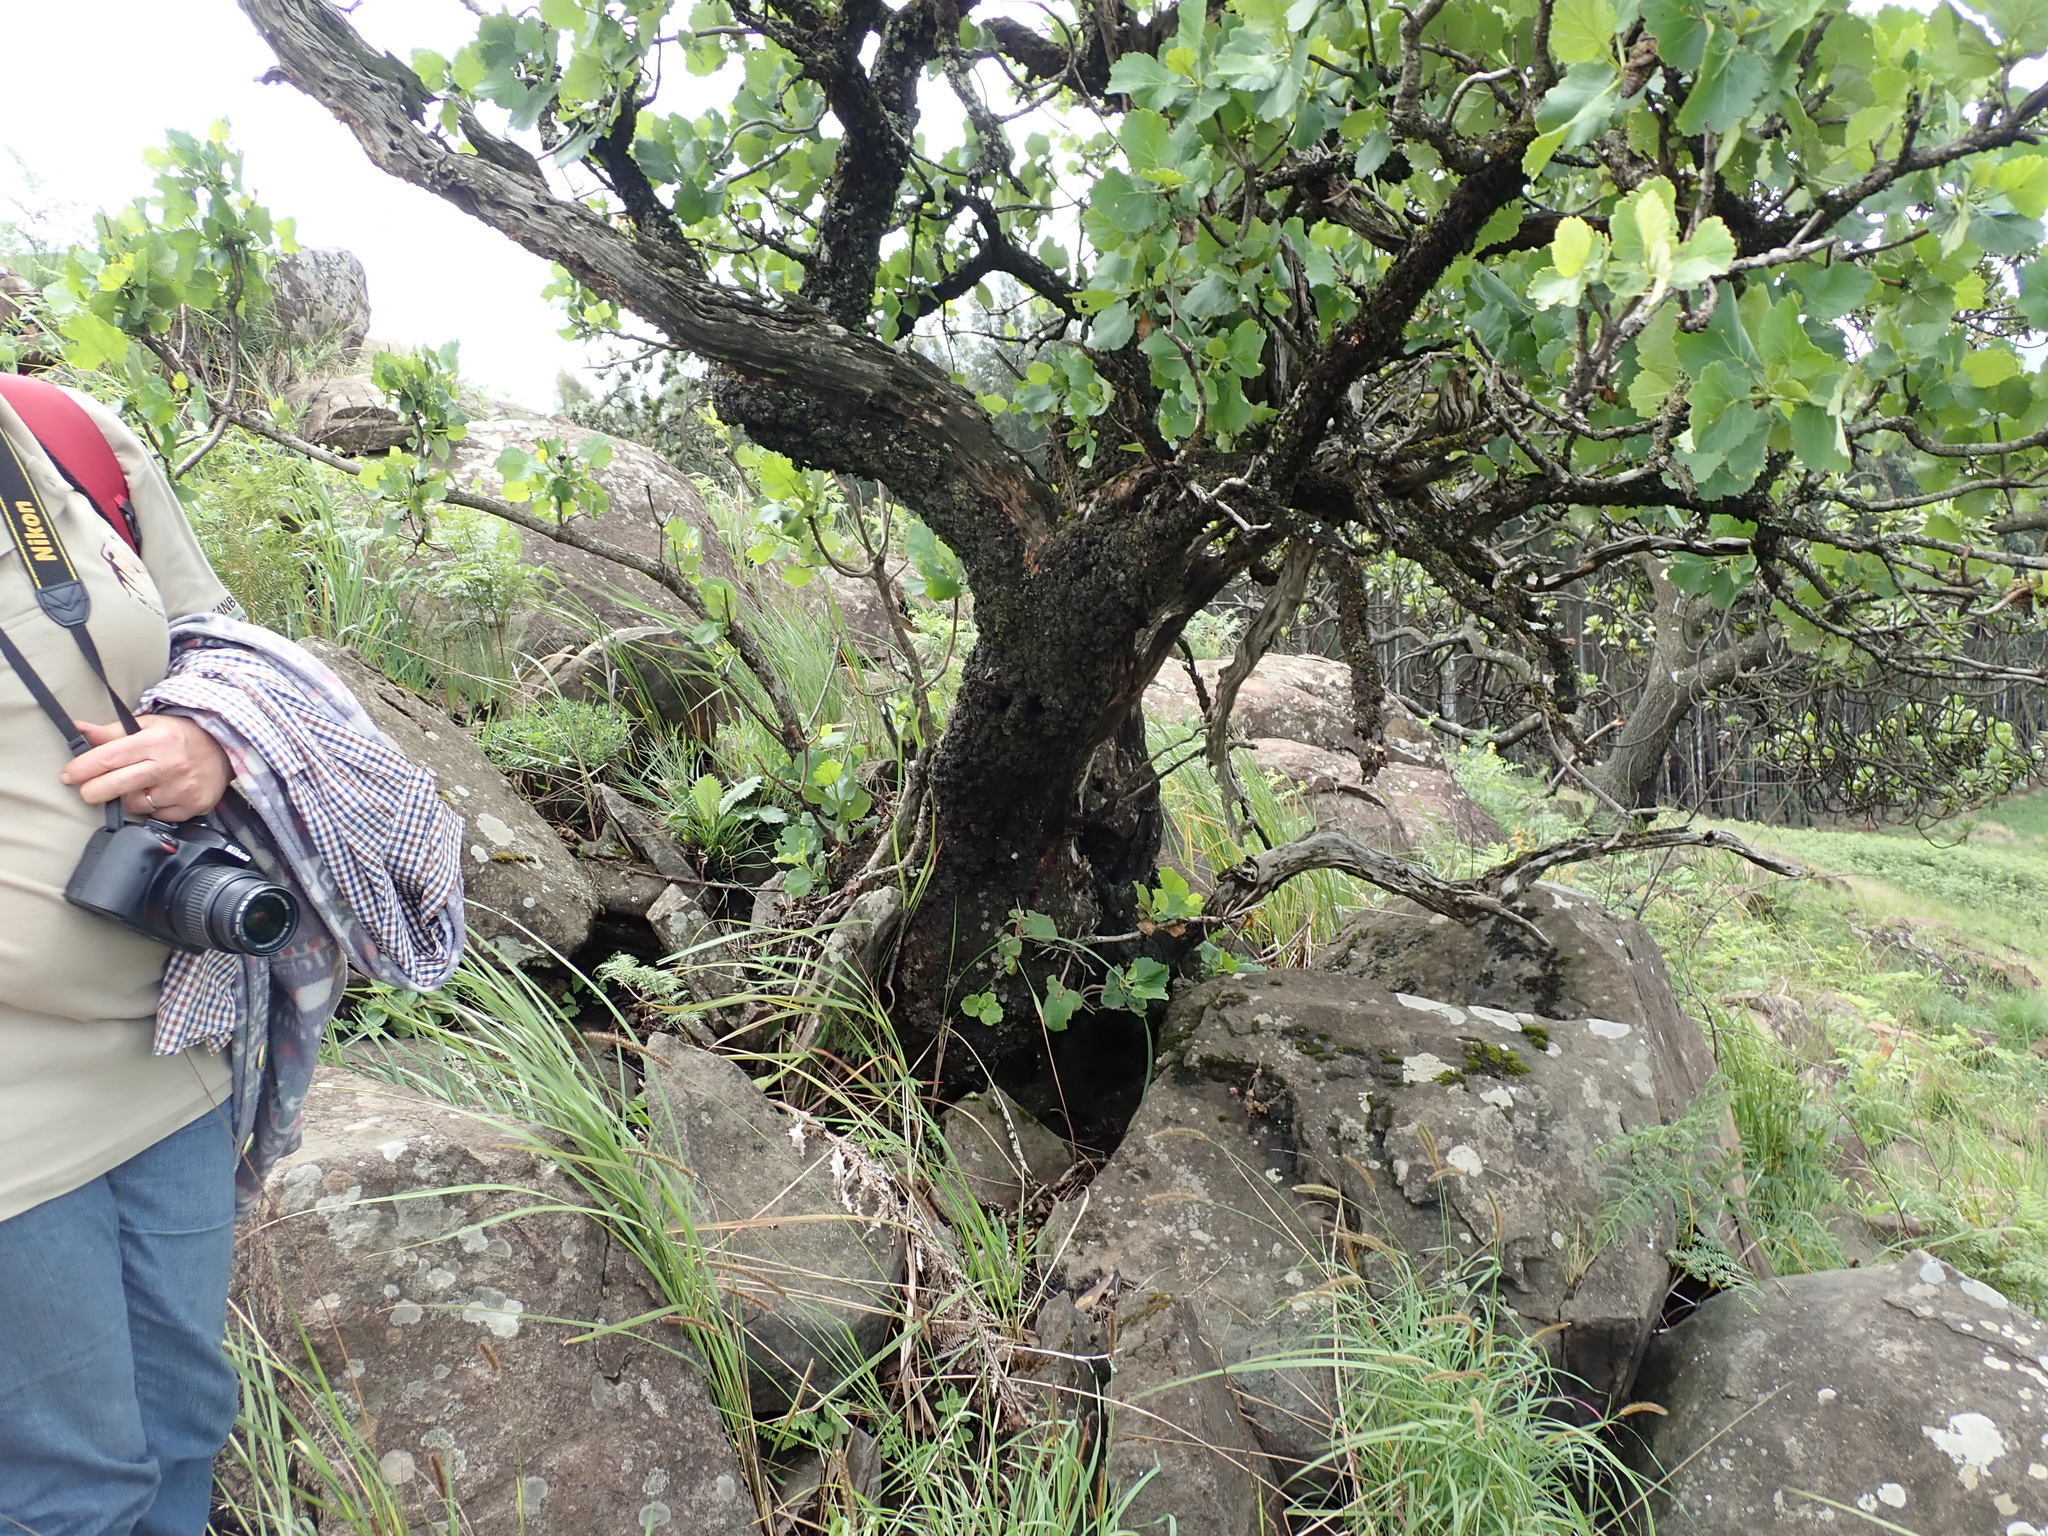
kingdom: Plantae
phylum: Tracheophyta
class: Magnoliopsida
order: Geraniales
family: Francoaceae
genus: Greyia
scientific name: Greyia radlkoferi
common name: Natal bottlebrush
